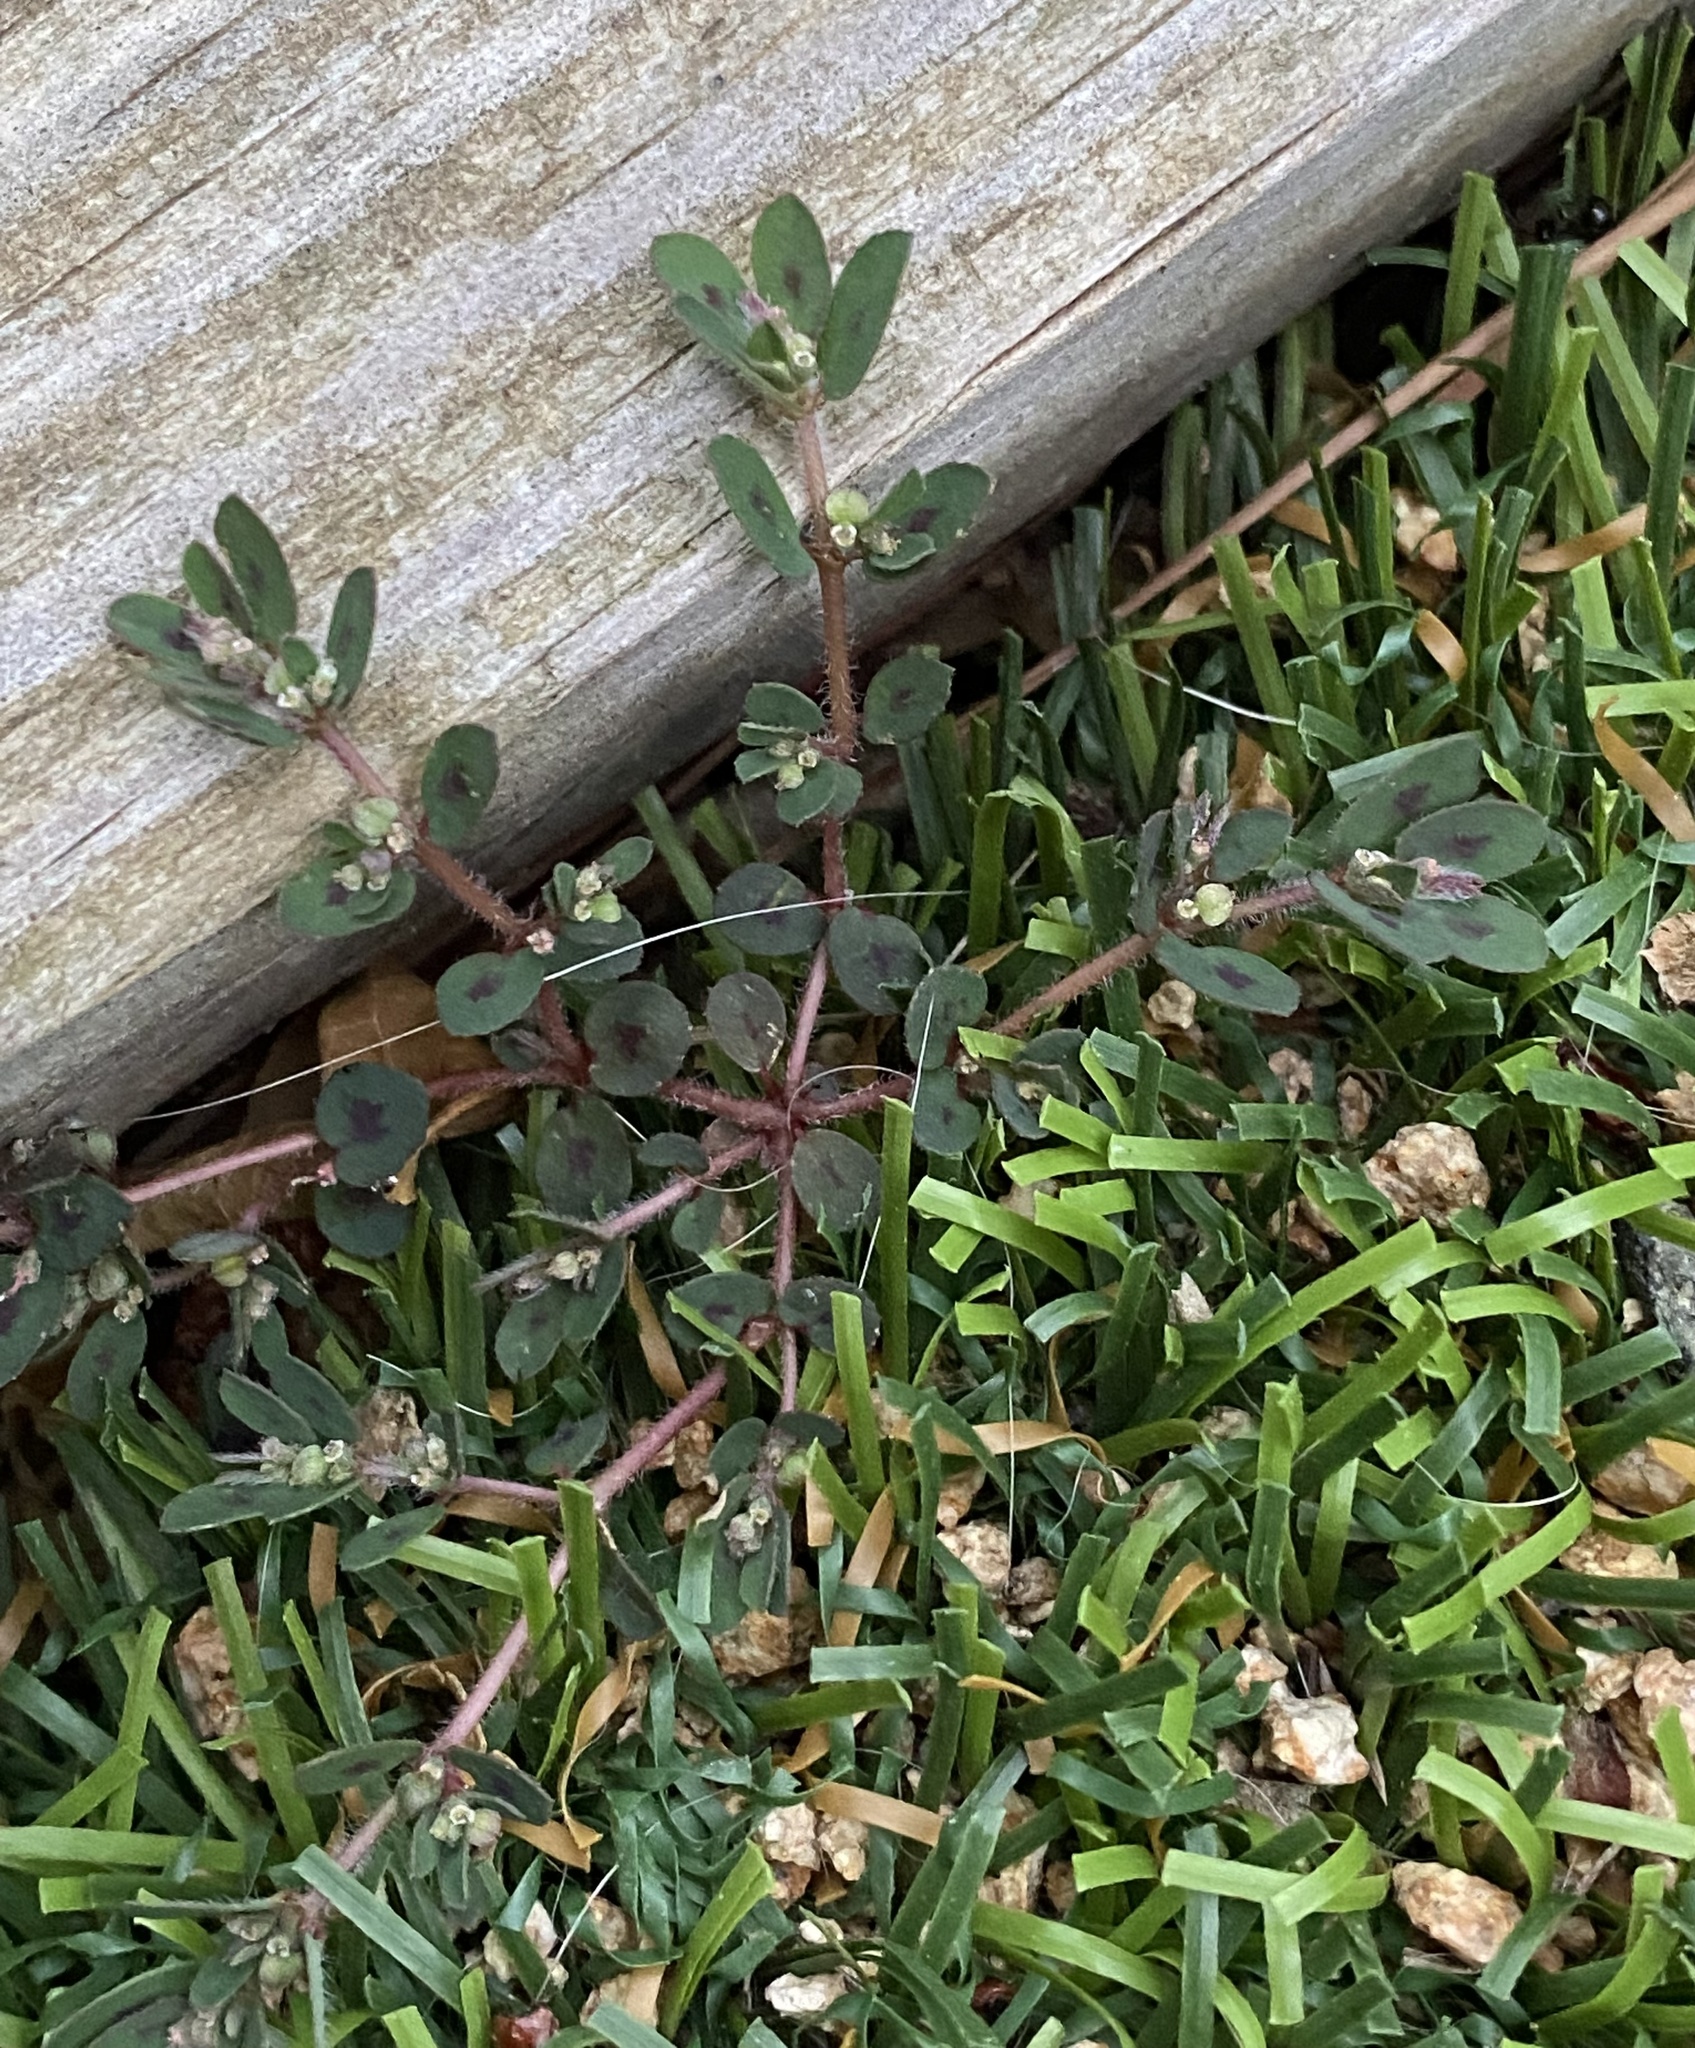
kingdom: Plantae
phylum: Tracheophyta
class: Magnoliopsida
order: Malpighiales
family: Euphorbiaceae
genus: Euphorbia
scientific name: Euphorbia maculata
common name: Spotted spurge
